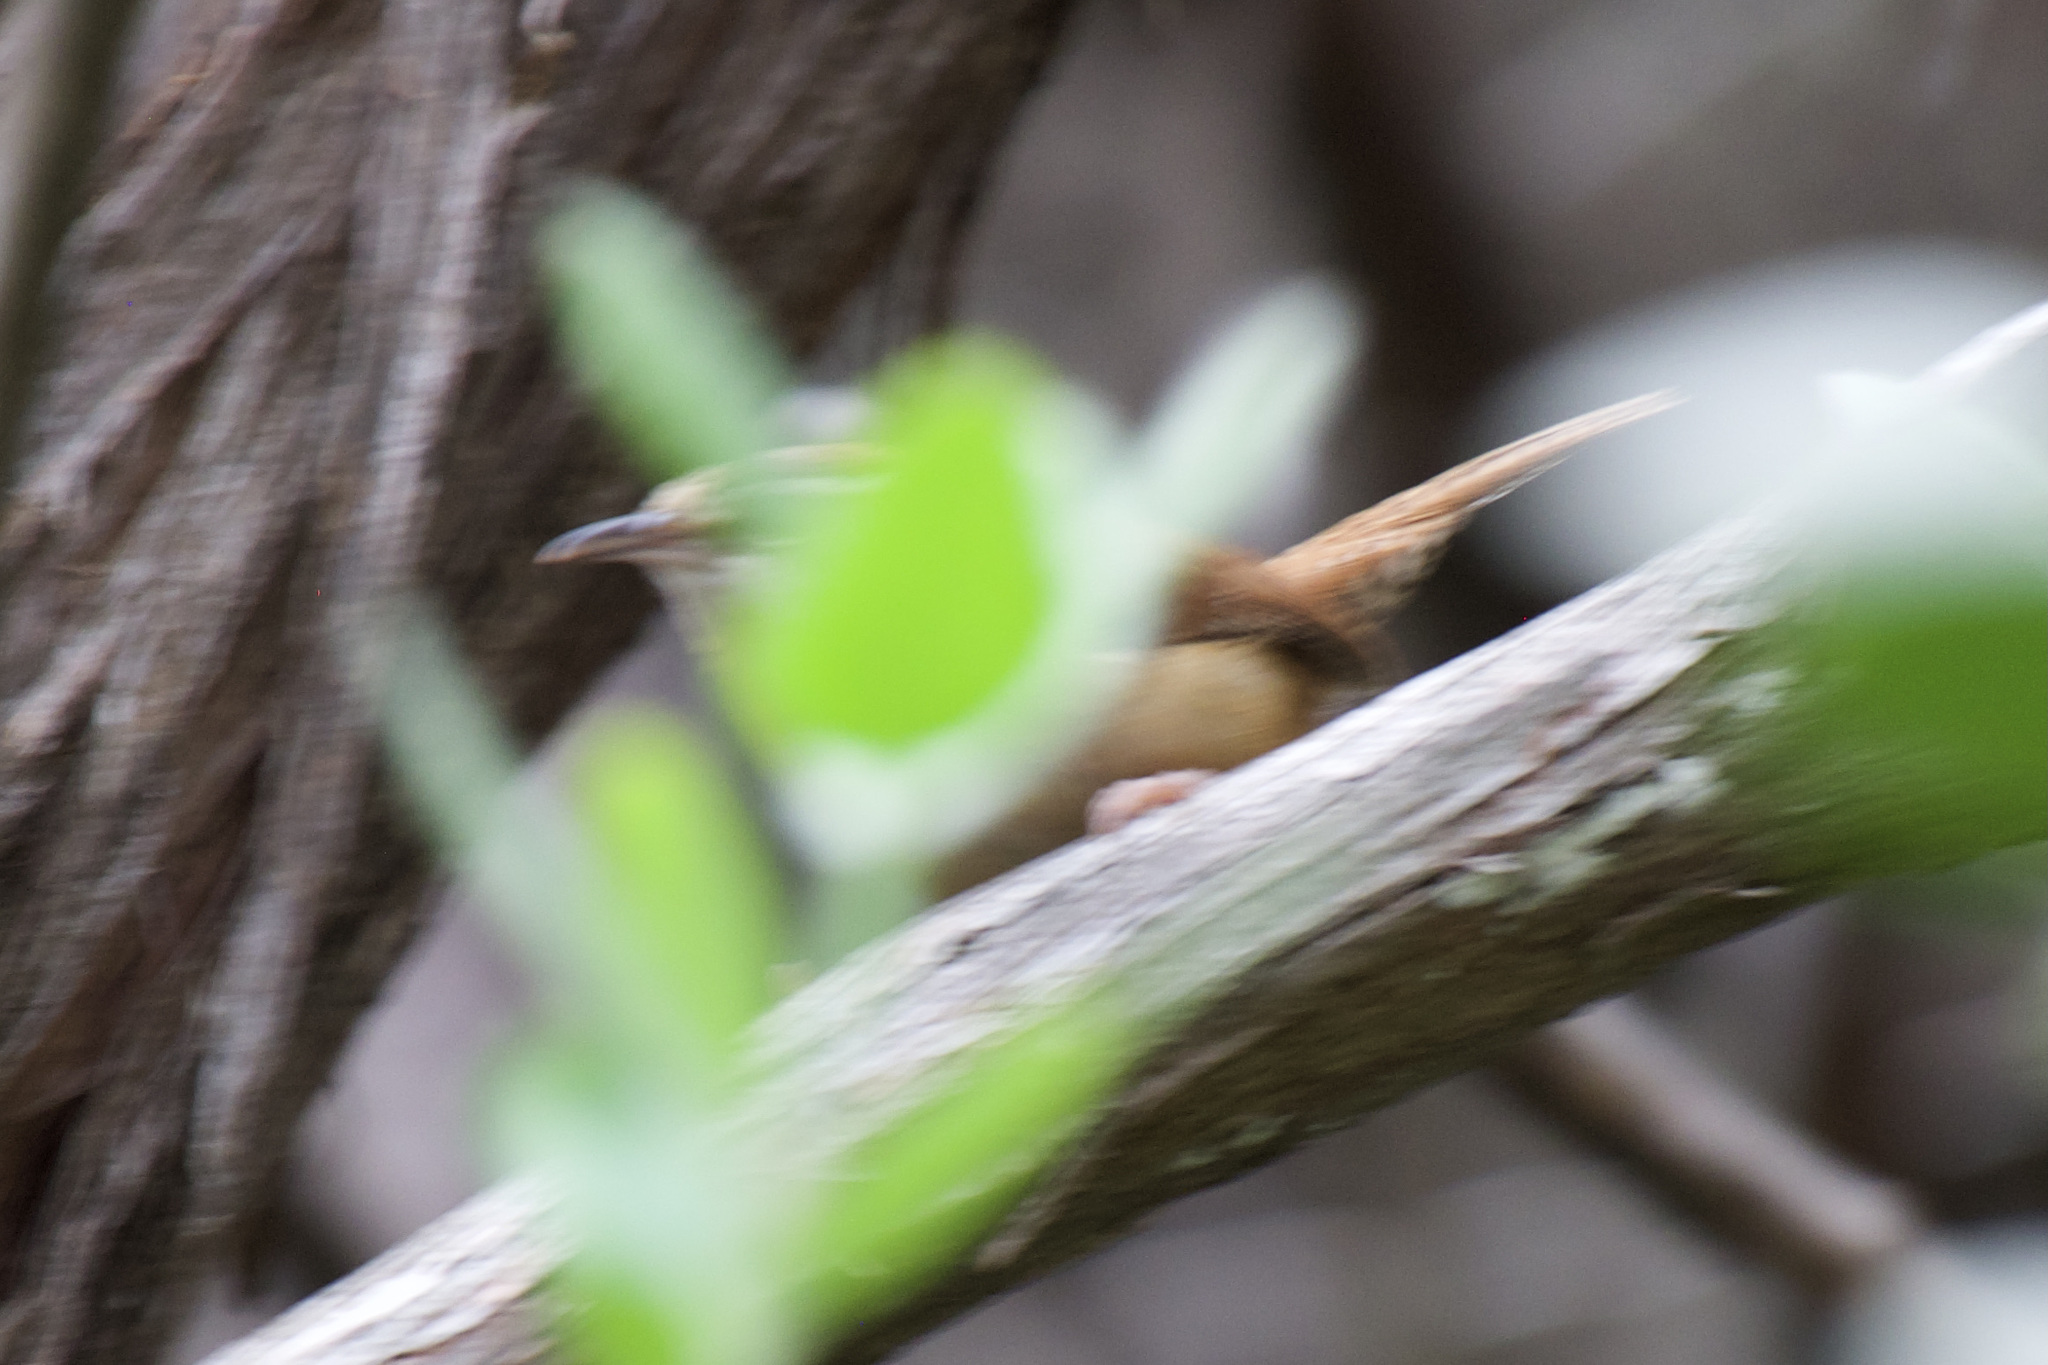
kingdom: Animalia
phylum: Chordata
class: Aves
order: Passeriformes
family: Troglodytidae
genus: Thryothorus
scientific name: Thryothorus ludovicianus
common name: Carolina wren
